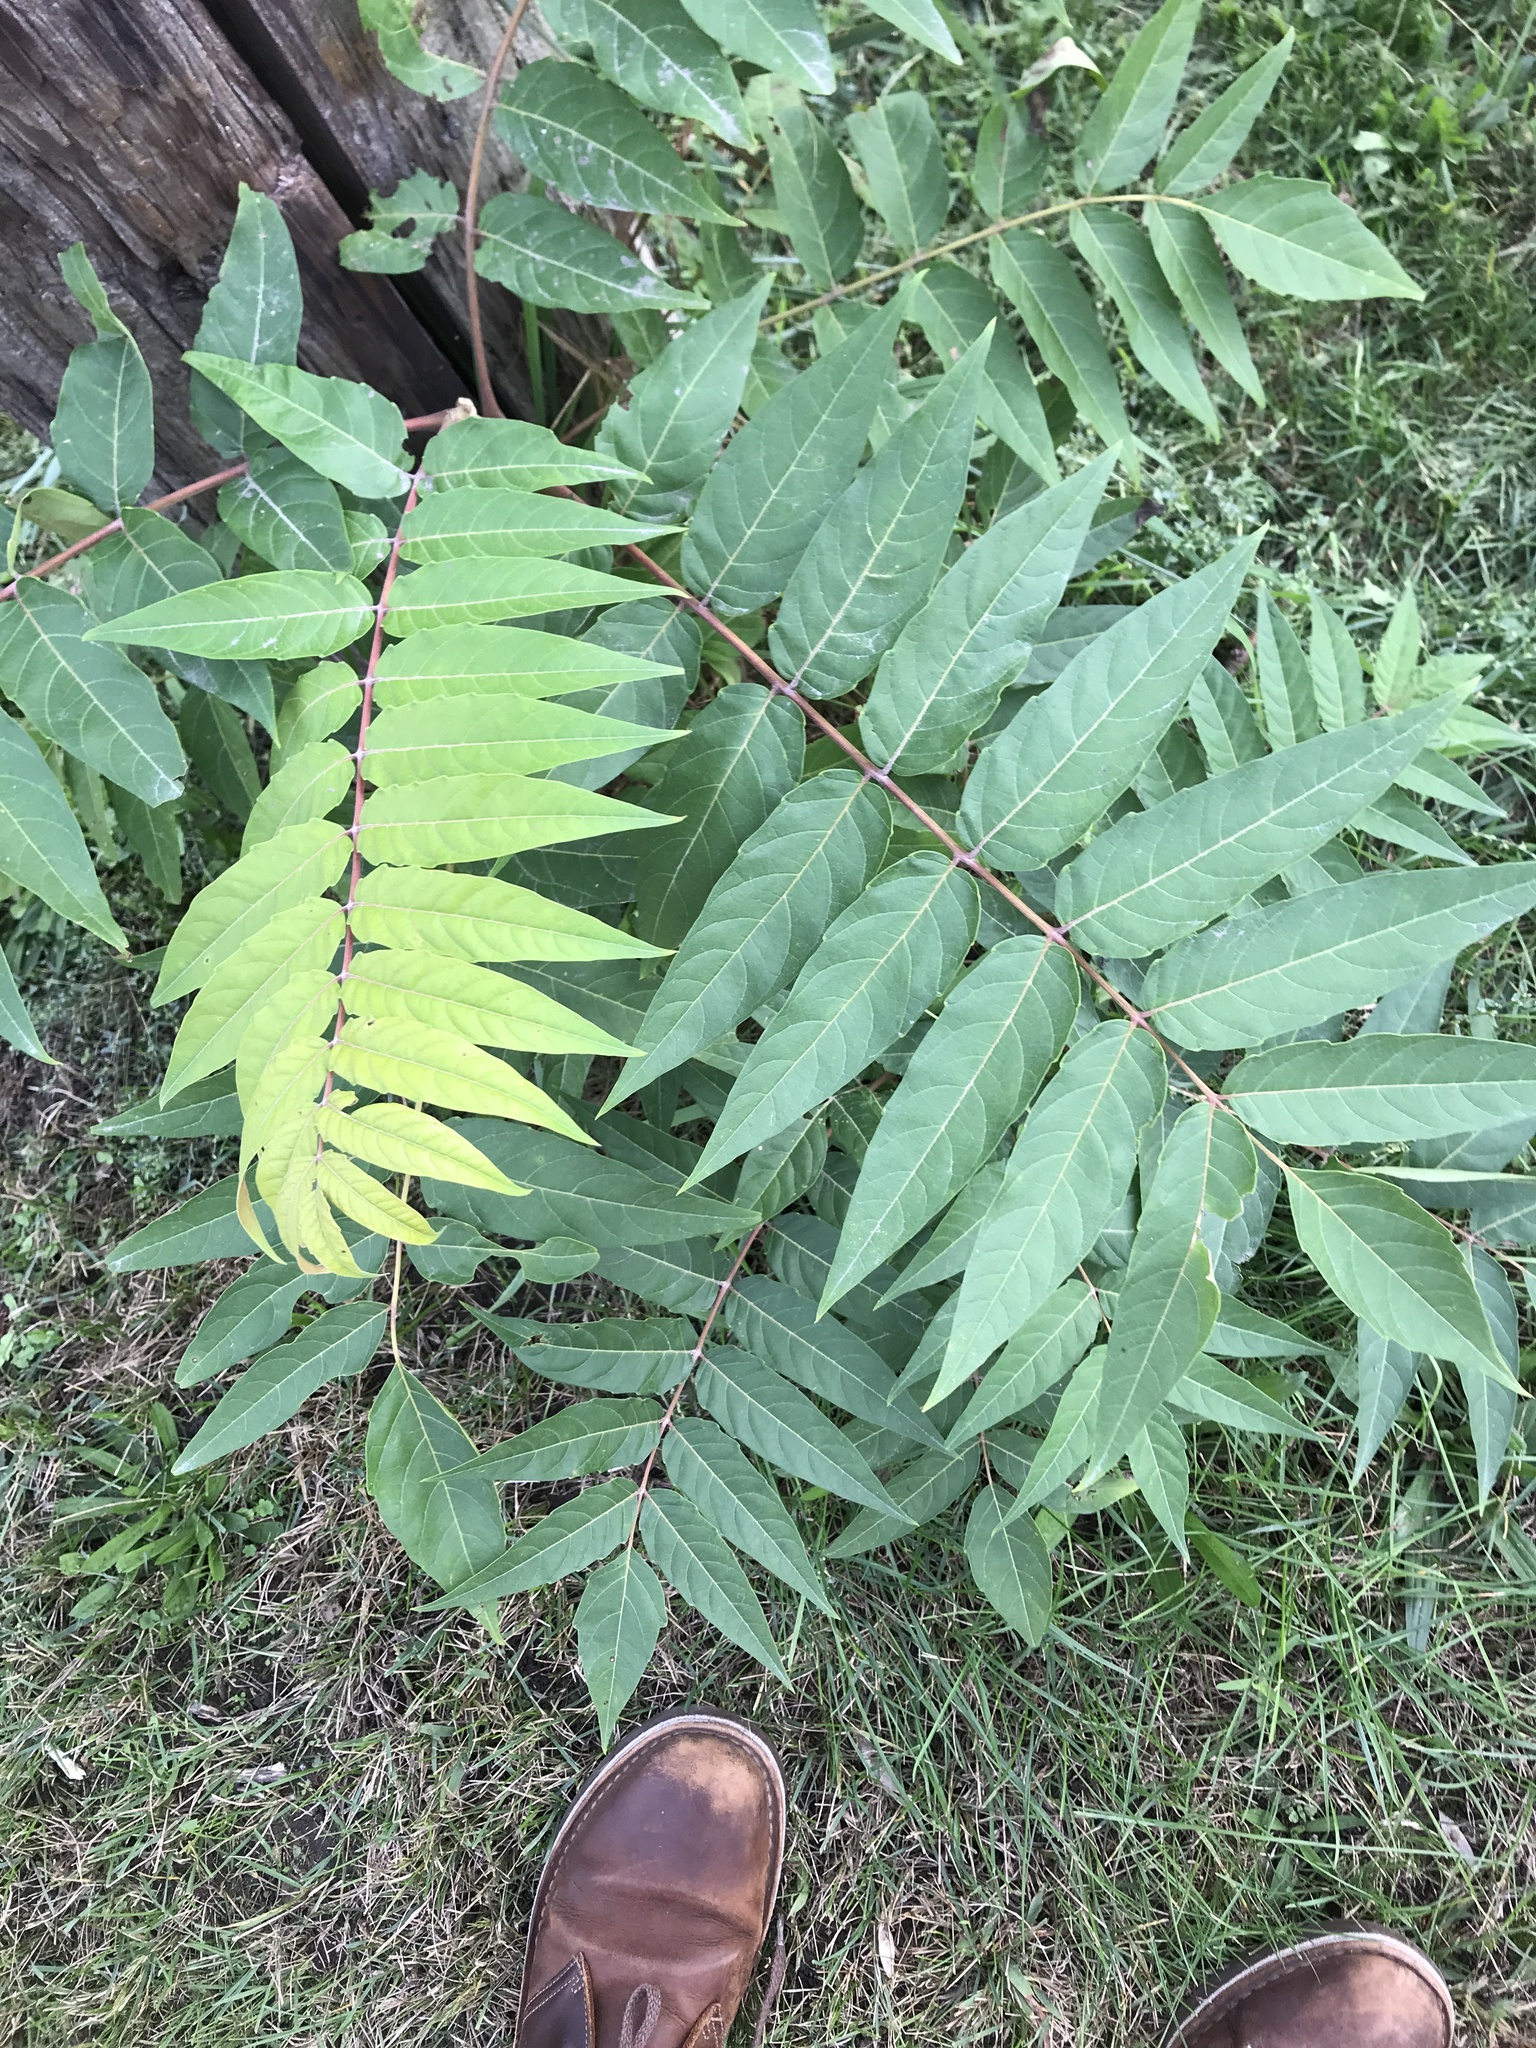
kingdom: Plantae
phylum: Tracheophyta
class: Magnoliopsida
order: Sapindales
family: Simaroubaceae
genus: Ailanthus
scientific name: Ailanthus altissima
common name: Tree-of-heaven
